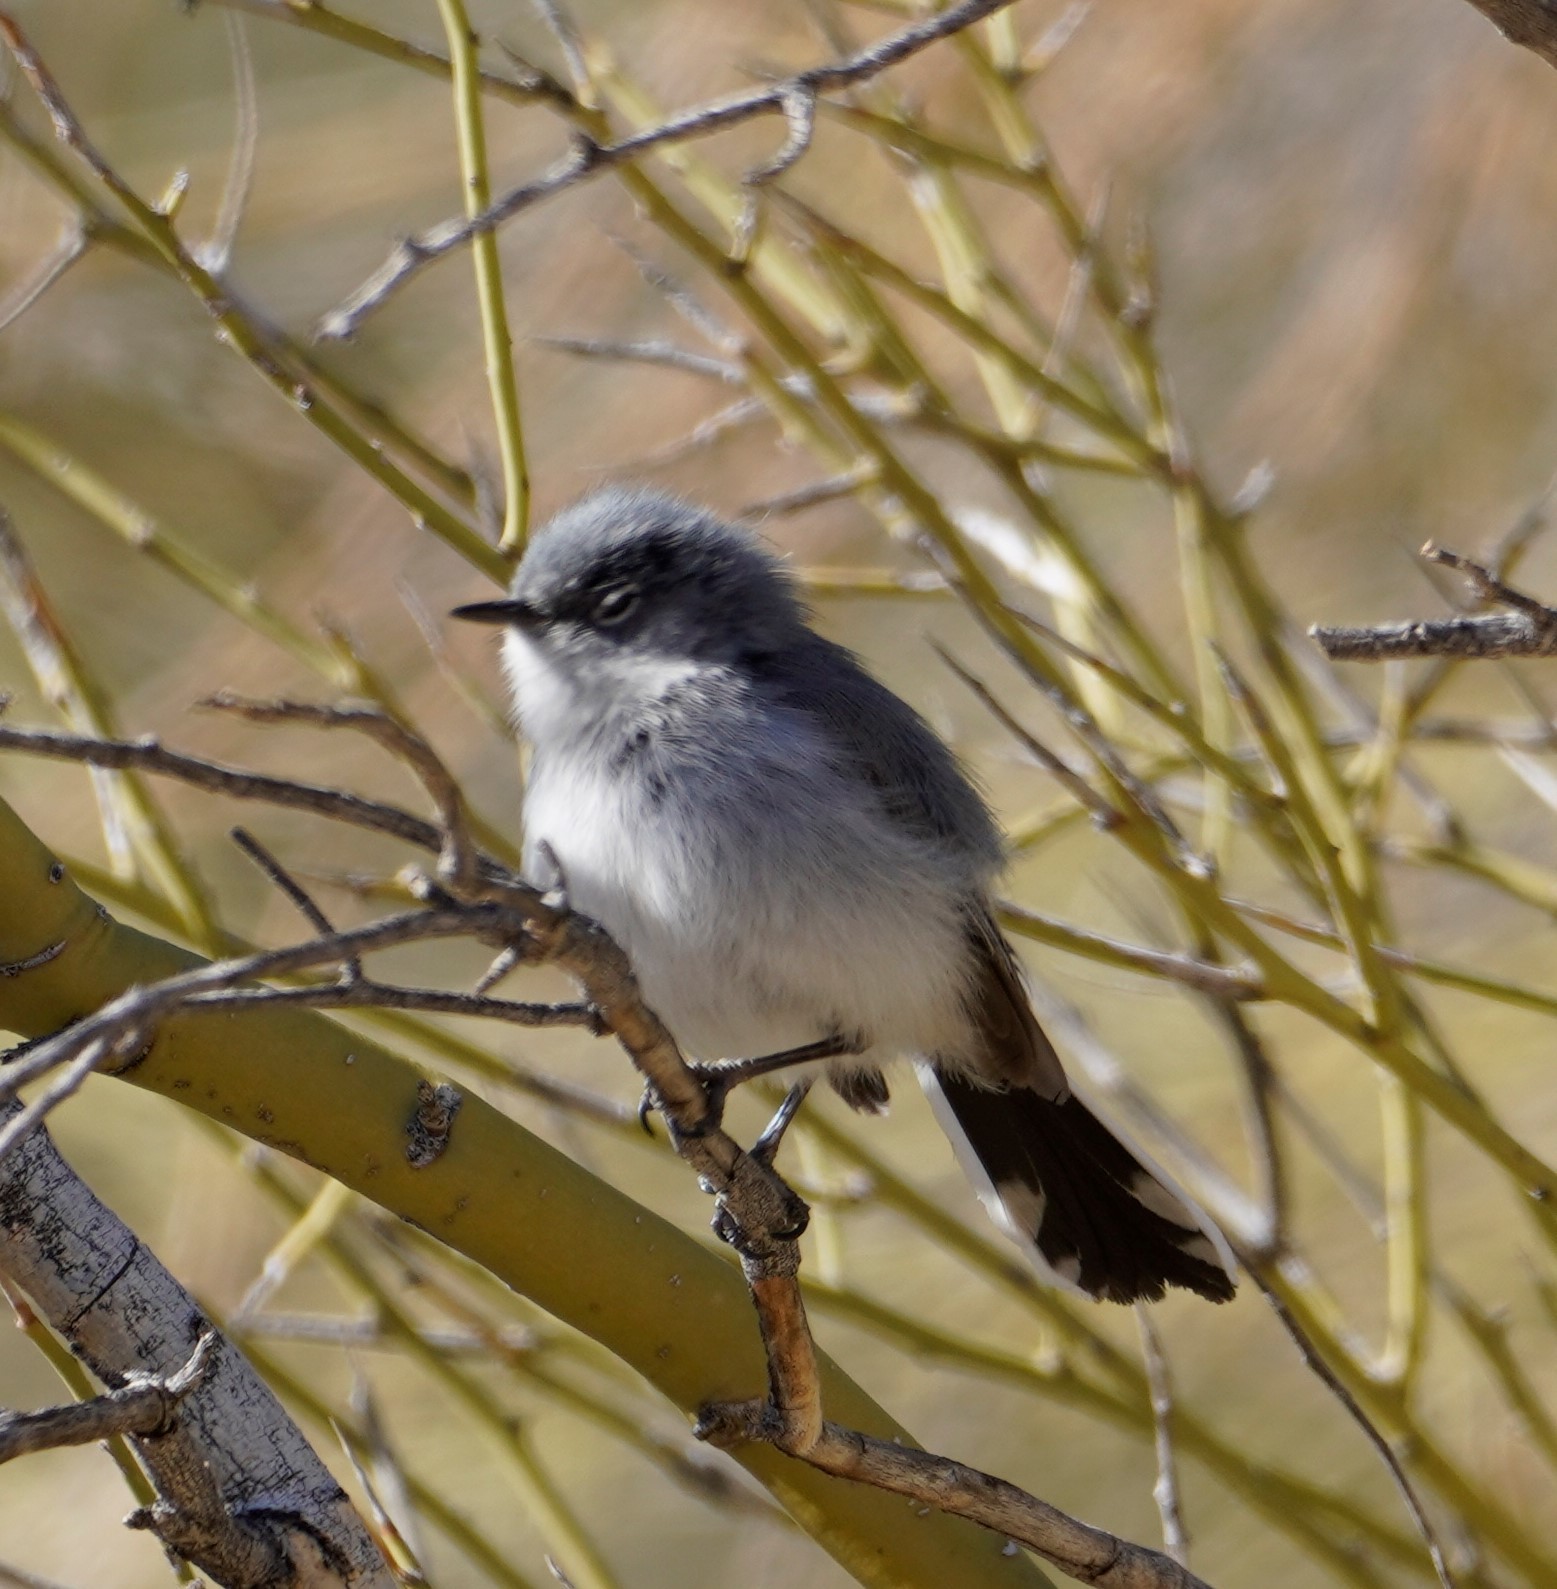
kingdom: Animalia
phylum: Chordata
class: Aves
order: Passeriformes
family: Polioptilidae
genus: Polioptila
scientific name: Polioptila melanura
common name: Black-tailed gnatcatcher
